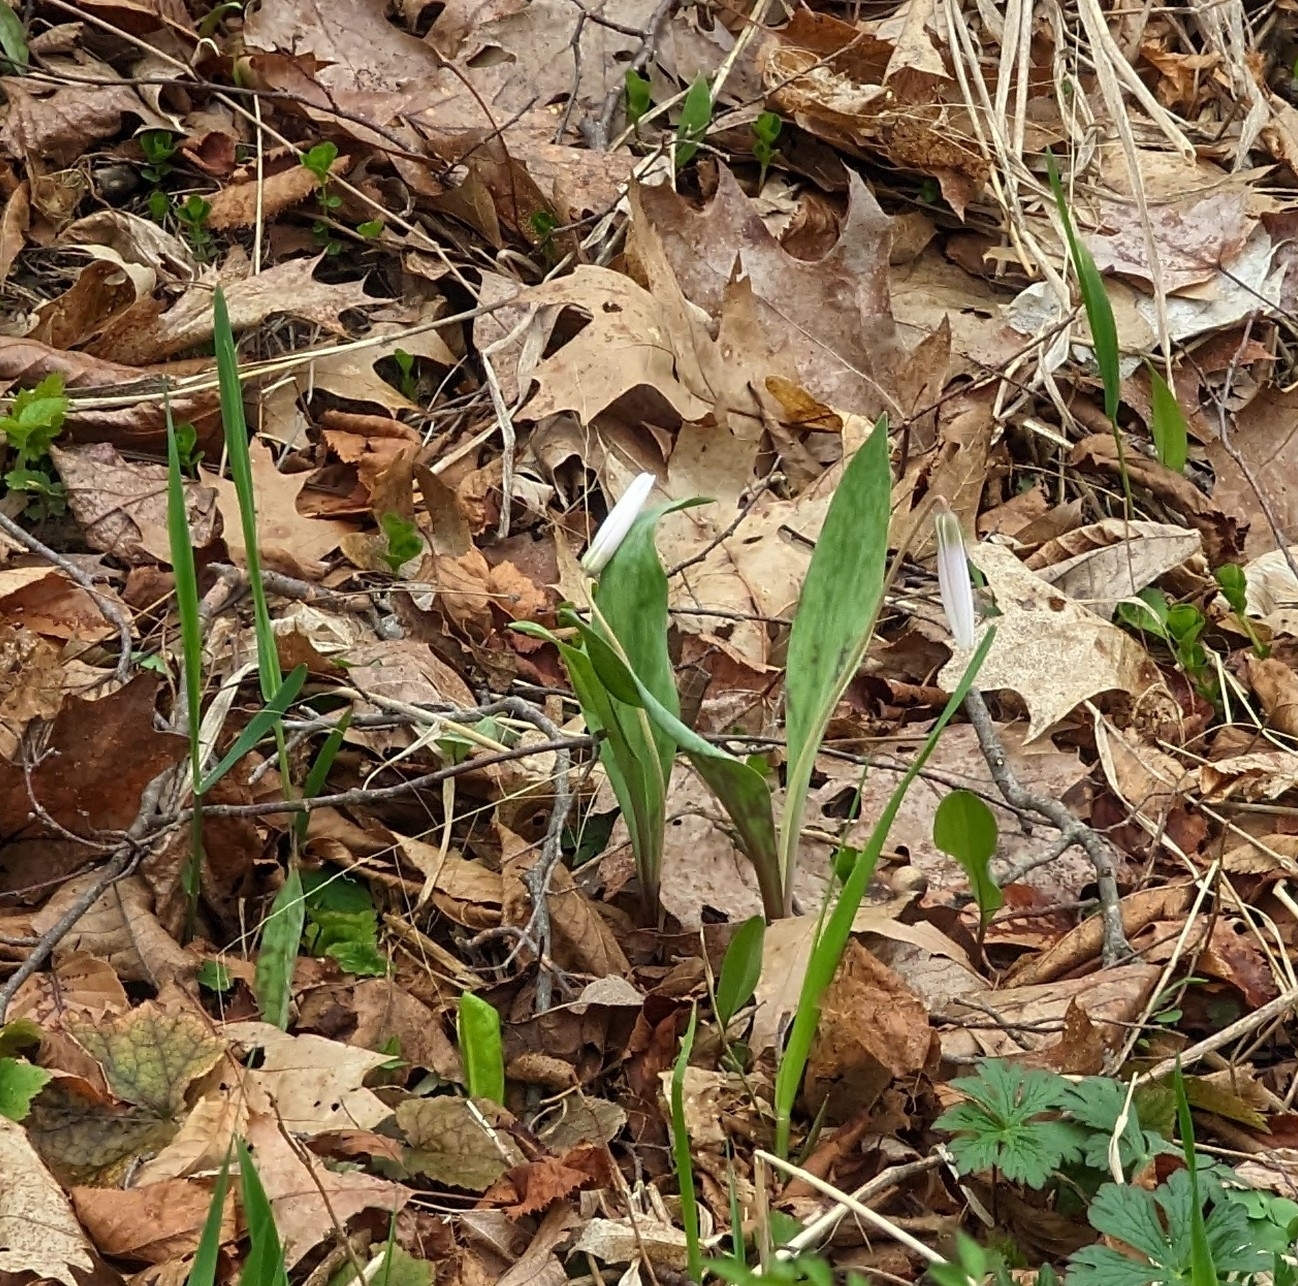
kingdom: Plantae
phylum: Tracheophyta
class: Liliopsida
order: Liliales
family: Liliaceae
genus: Erythronium
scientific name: Erythronium albidum
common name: White trout-lily
